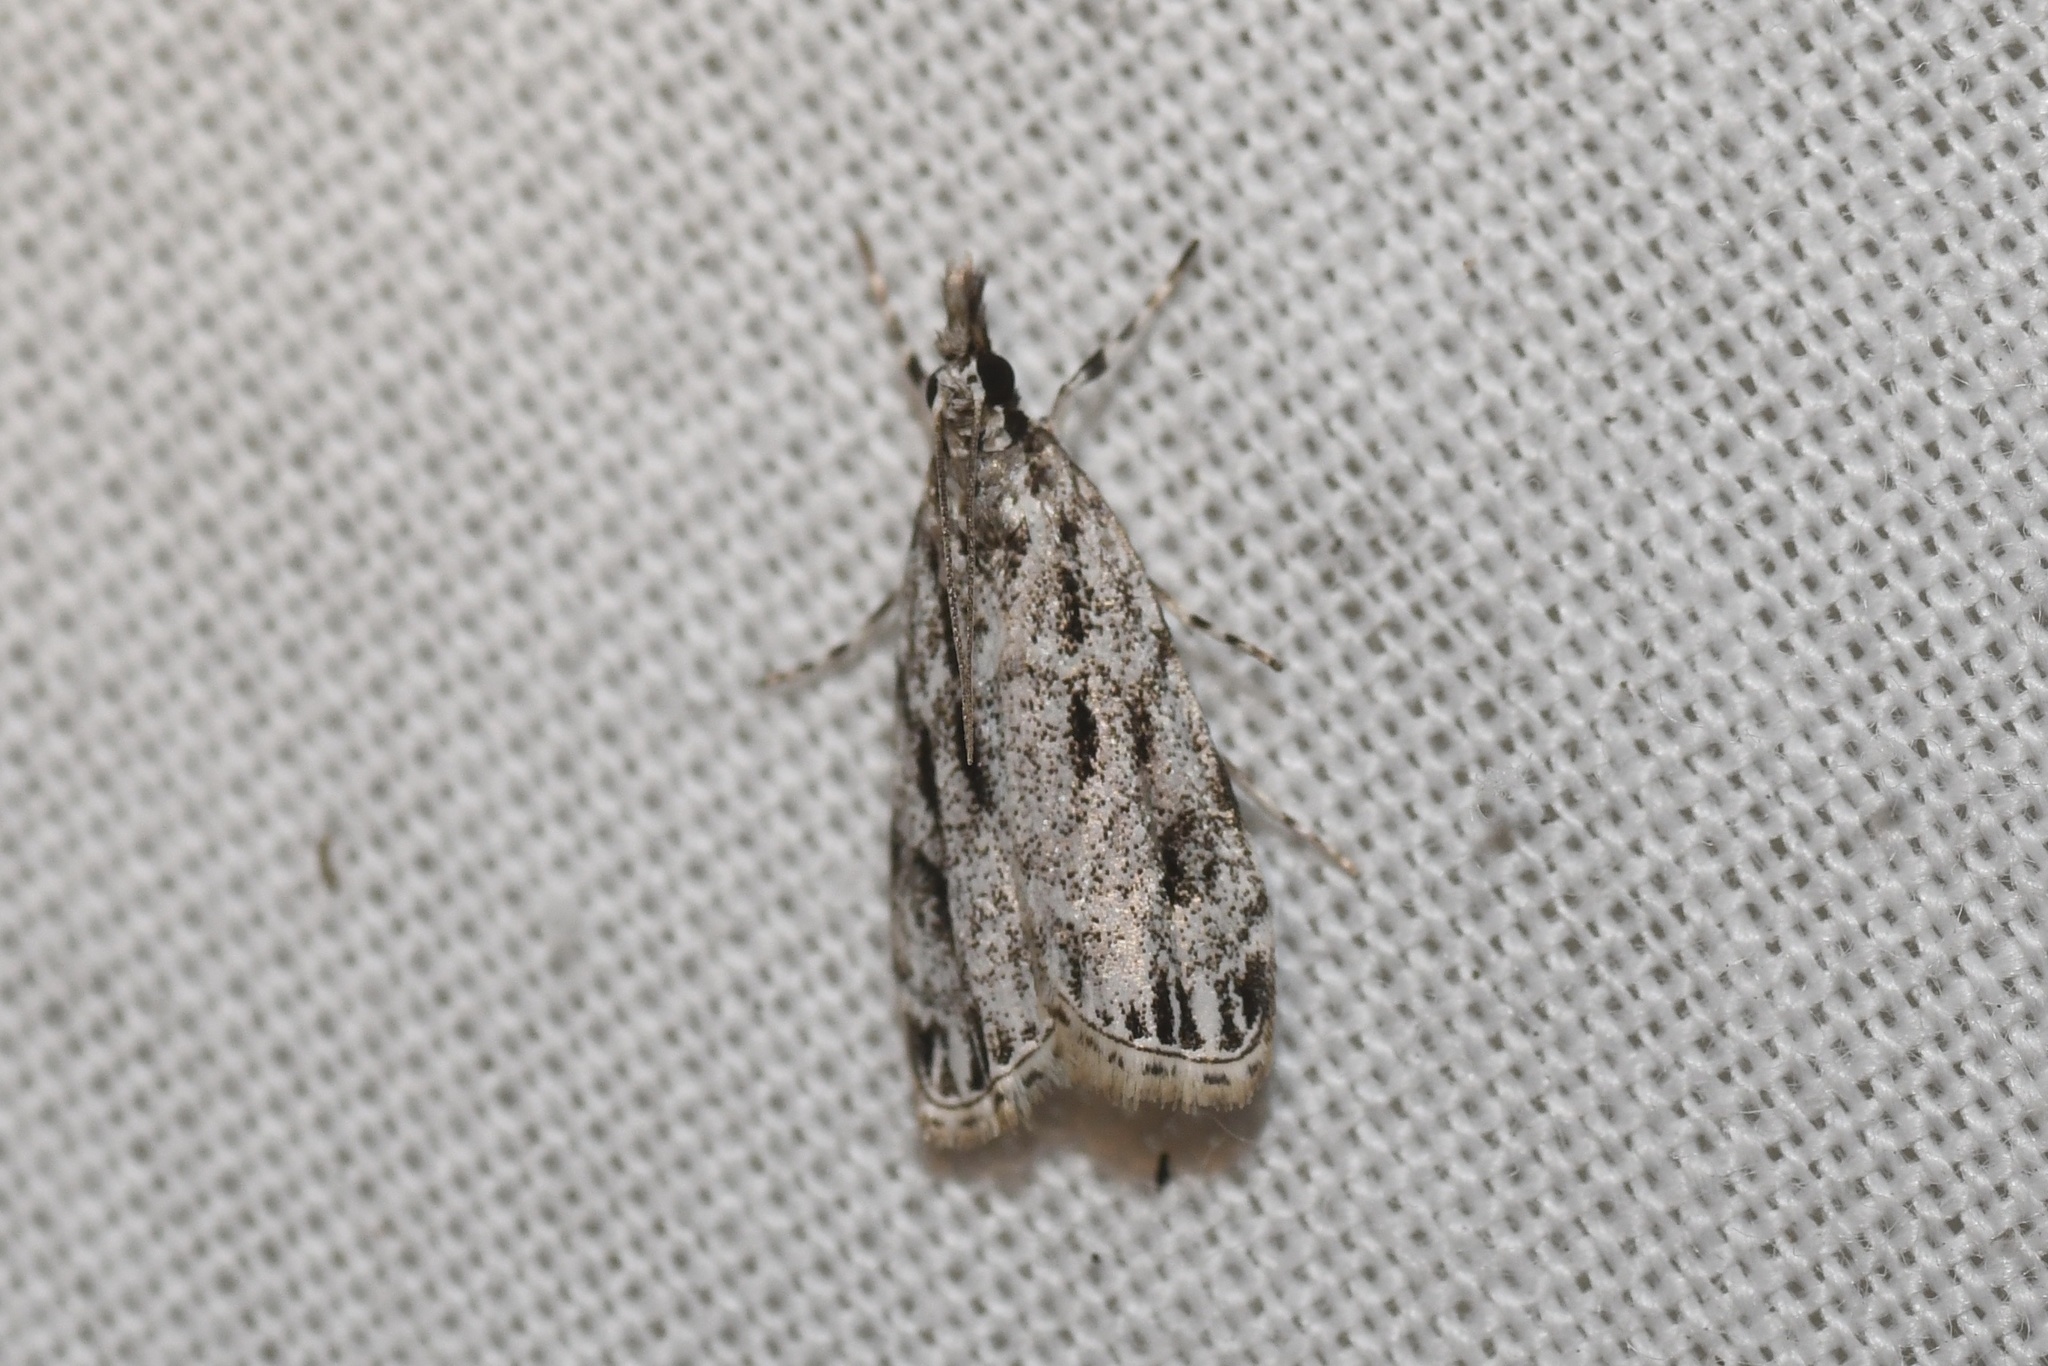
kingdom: Animalia
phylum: Arthropoda
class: Insecta
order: Lepidoptera
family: Crambidae
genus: Eudonia
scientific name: Eudonia strigalis
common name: Striped eudonia moth
